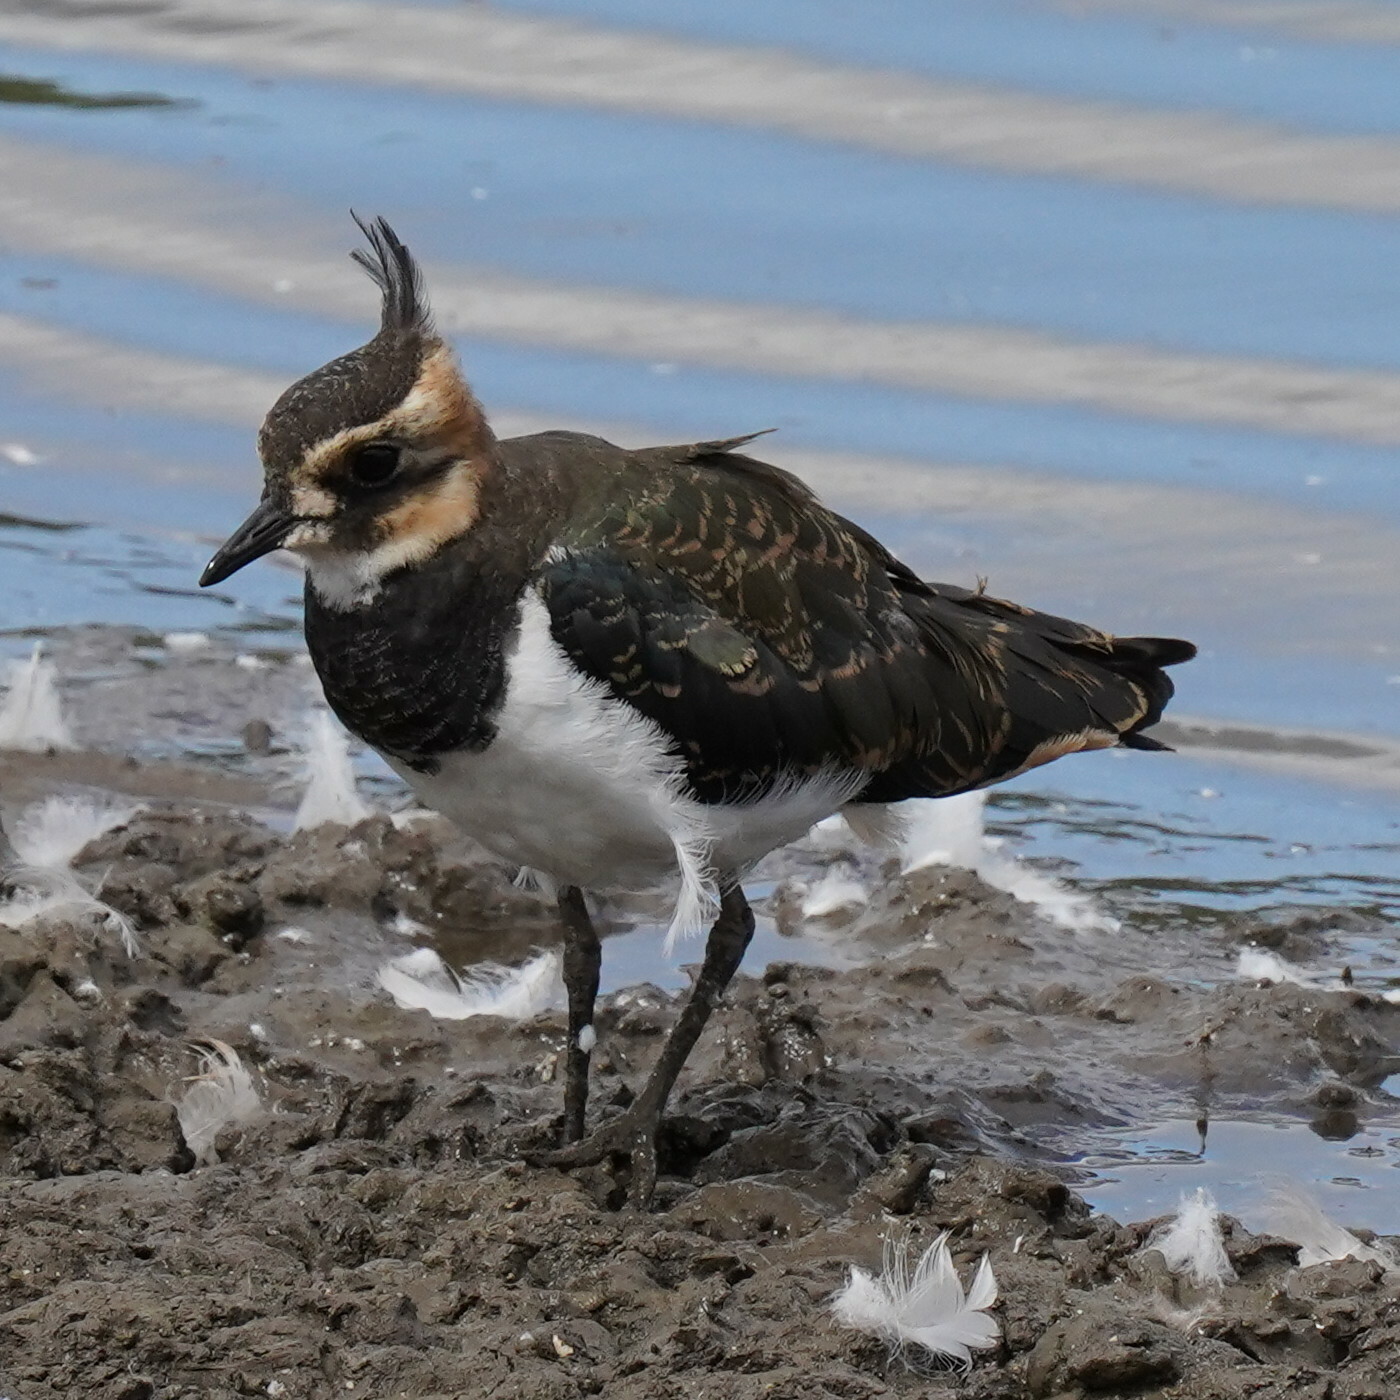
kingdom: Animalia
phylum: Chordata
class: Aves
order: Charadriiformes
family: Charadriidae
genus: Vanellus
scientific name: Vanellus vanellus
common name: Northern lapwing
